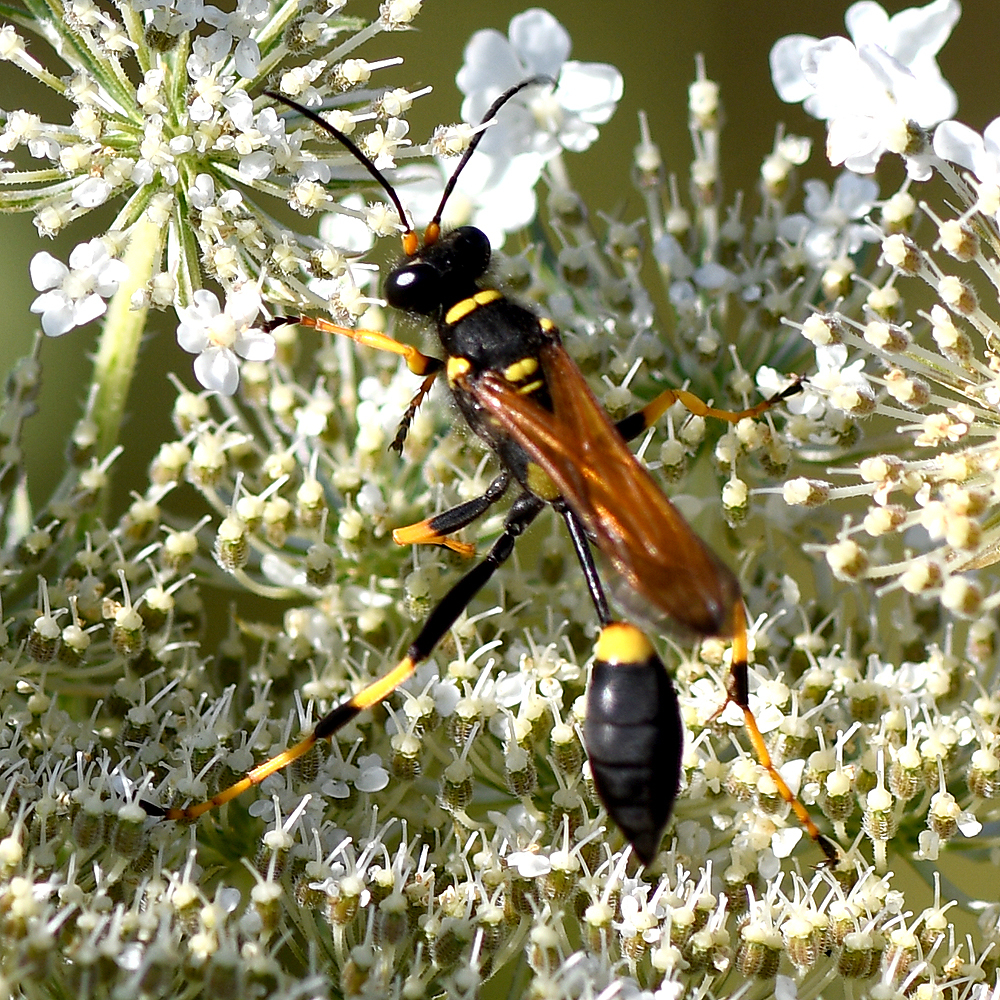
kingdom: Animalia
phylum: Arthropoda
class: Insecta
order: Hymenoptera
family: Sphecidae
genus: Sceliphron
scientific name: Sceliphron caementarium
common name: Mud dauber
